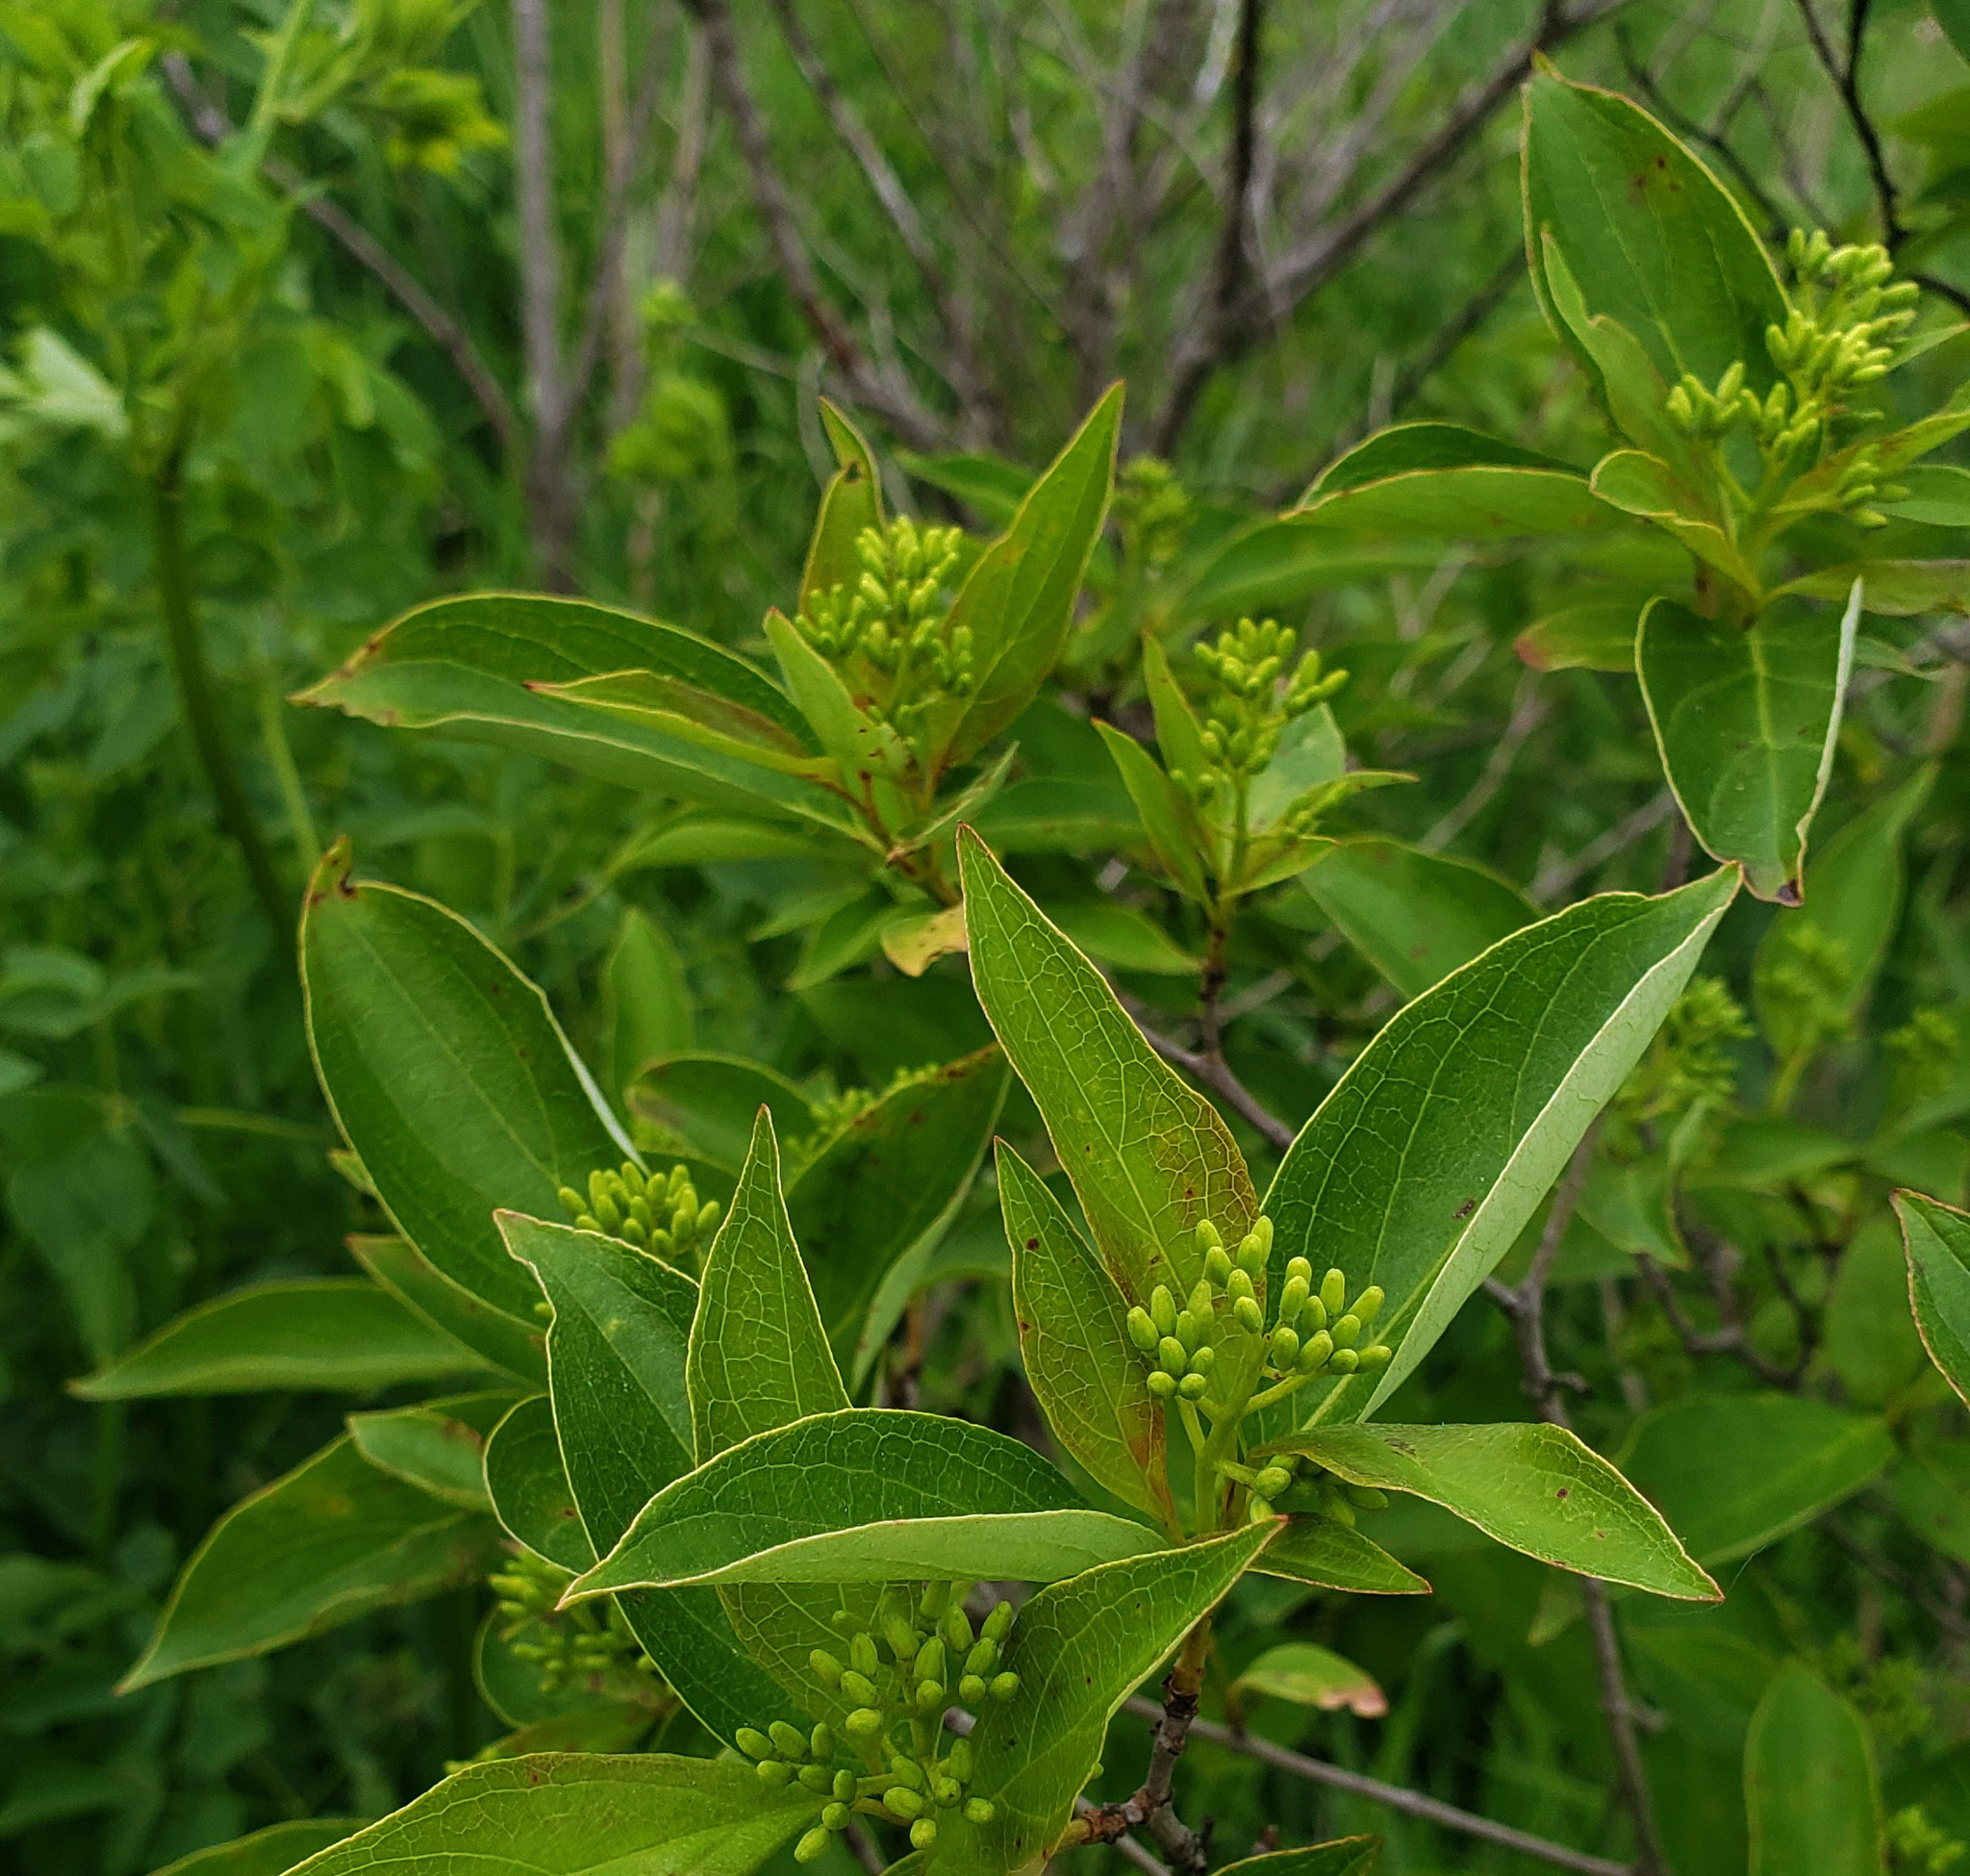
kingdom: Plantae
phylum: Tracheophyta
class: Magnoliopsida
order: Cornales
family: Cornaceae
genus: Cornus
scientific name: Cornus racemosa
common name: Panicled dogwood
